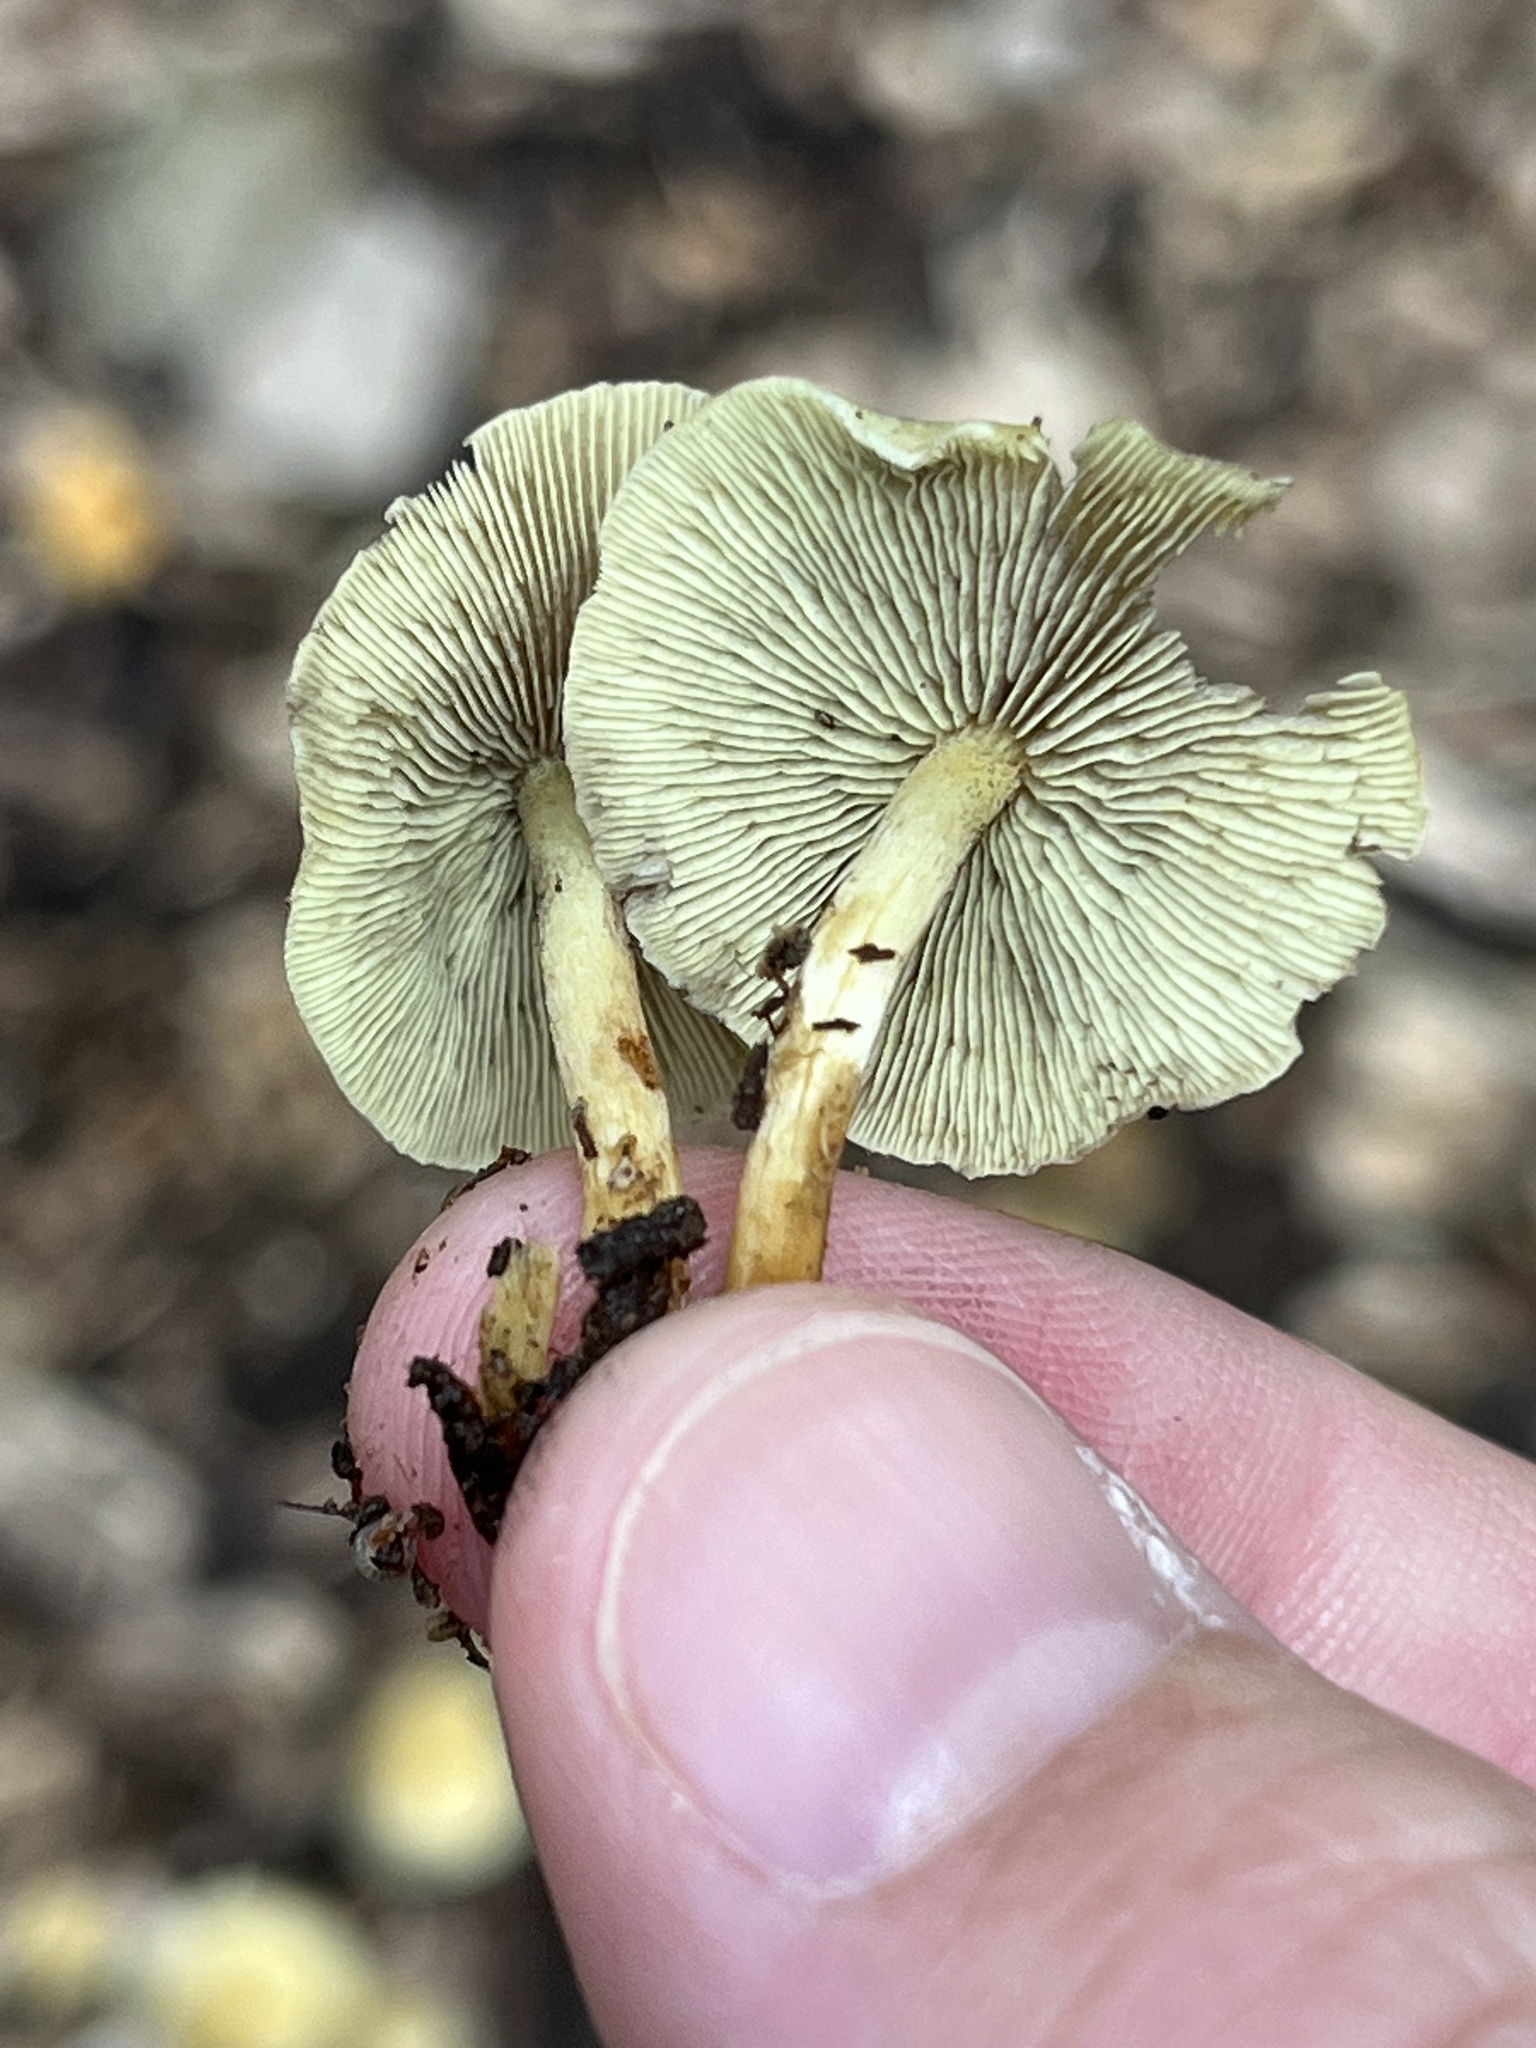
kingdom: Fungi
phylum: Basidiomycota
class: Agaricomycetes
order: Agaricales
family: Strophariaceae
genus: Hypholoma
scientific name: Hypholoma fasciculare
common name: Sulphur tuft
